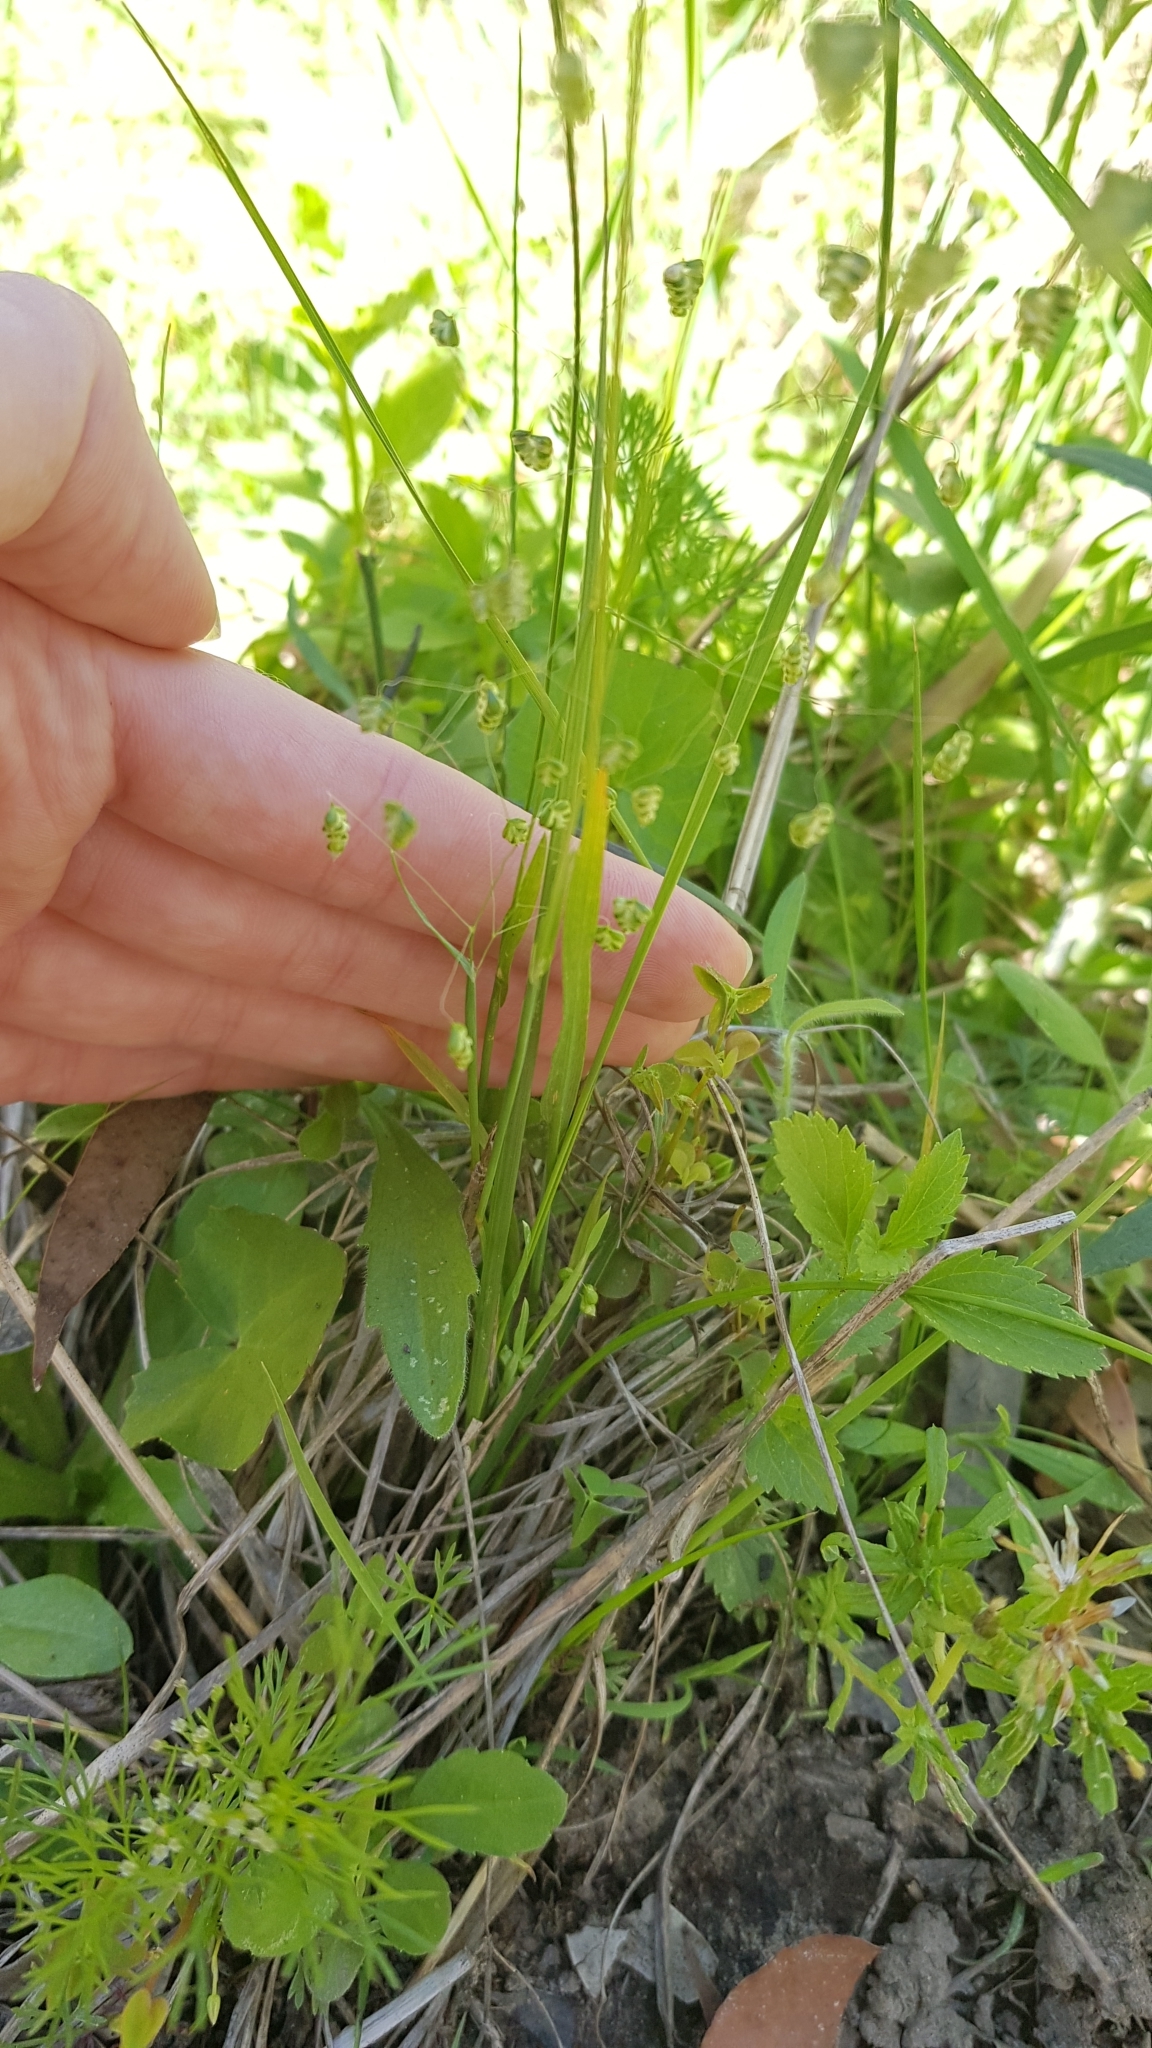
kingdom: Plantae
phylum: Tracheophyta
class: Liliopsida
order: Poales
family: Poaceae
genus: Briza
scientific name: Briza minor
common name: Lesser quaking-grass
